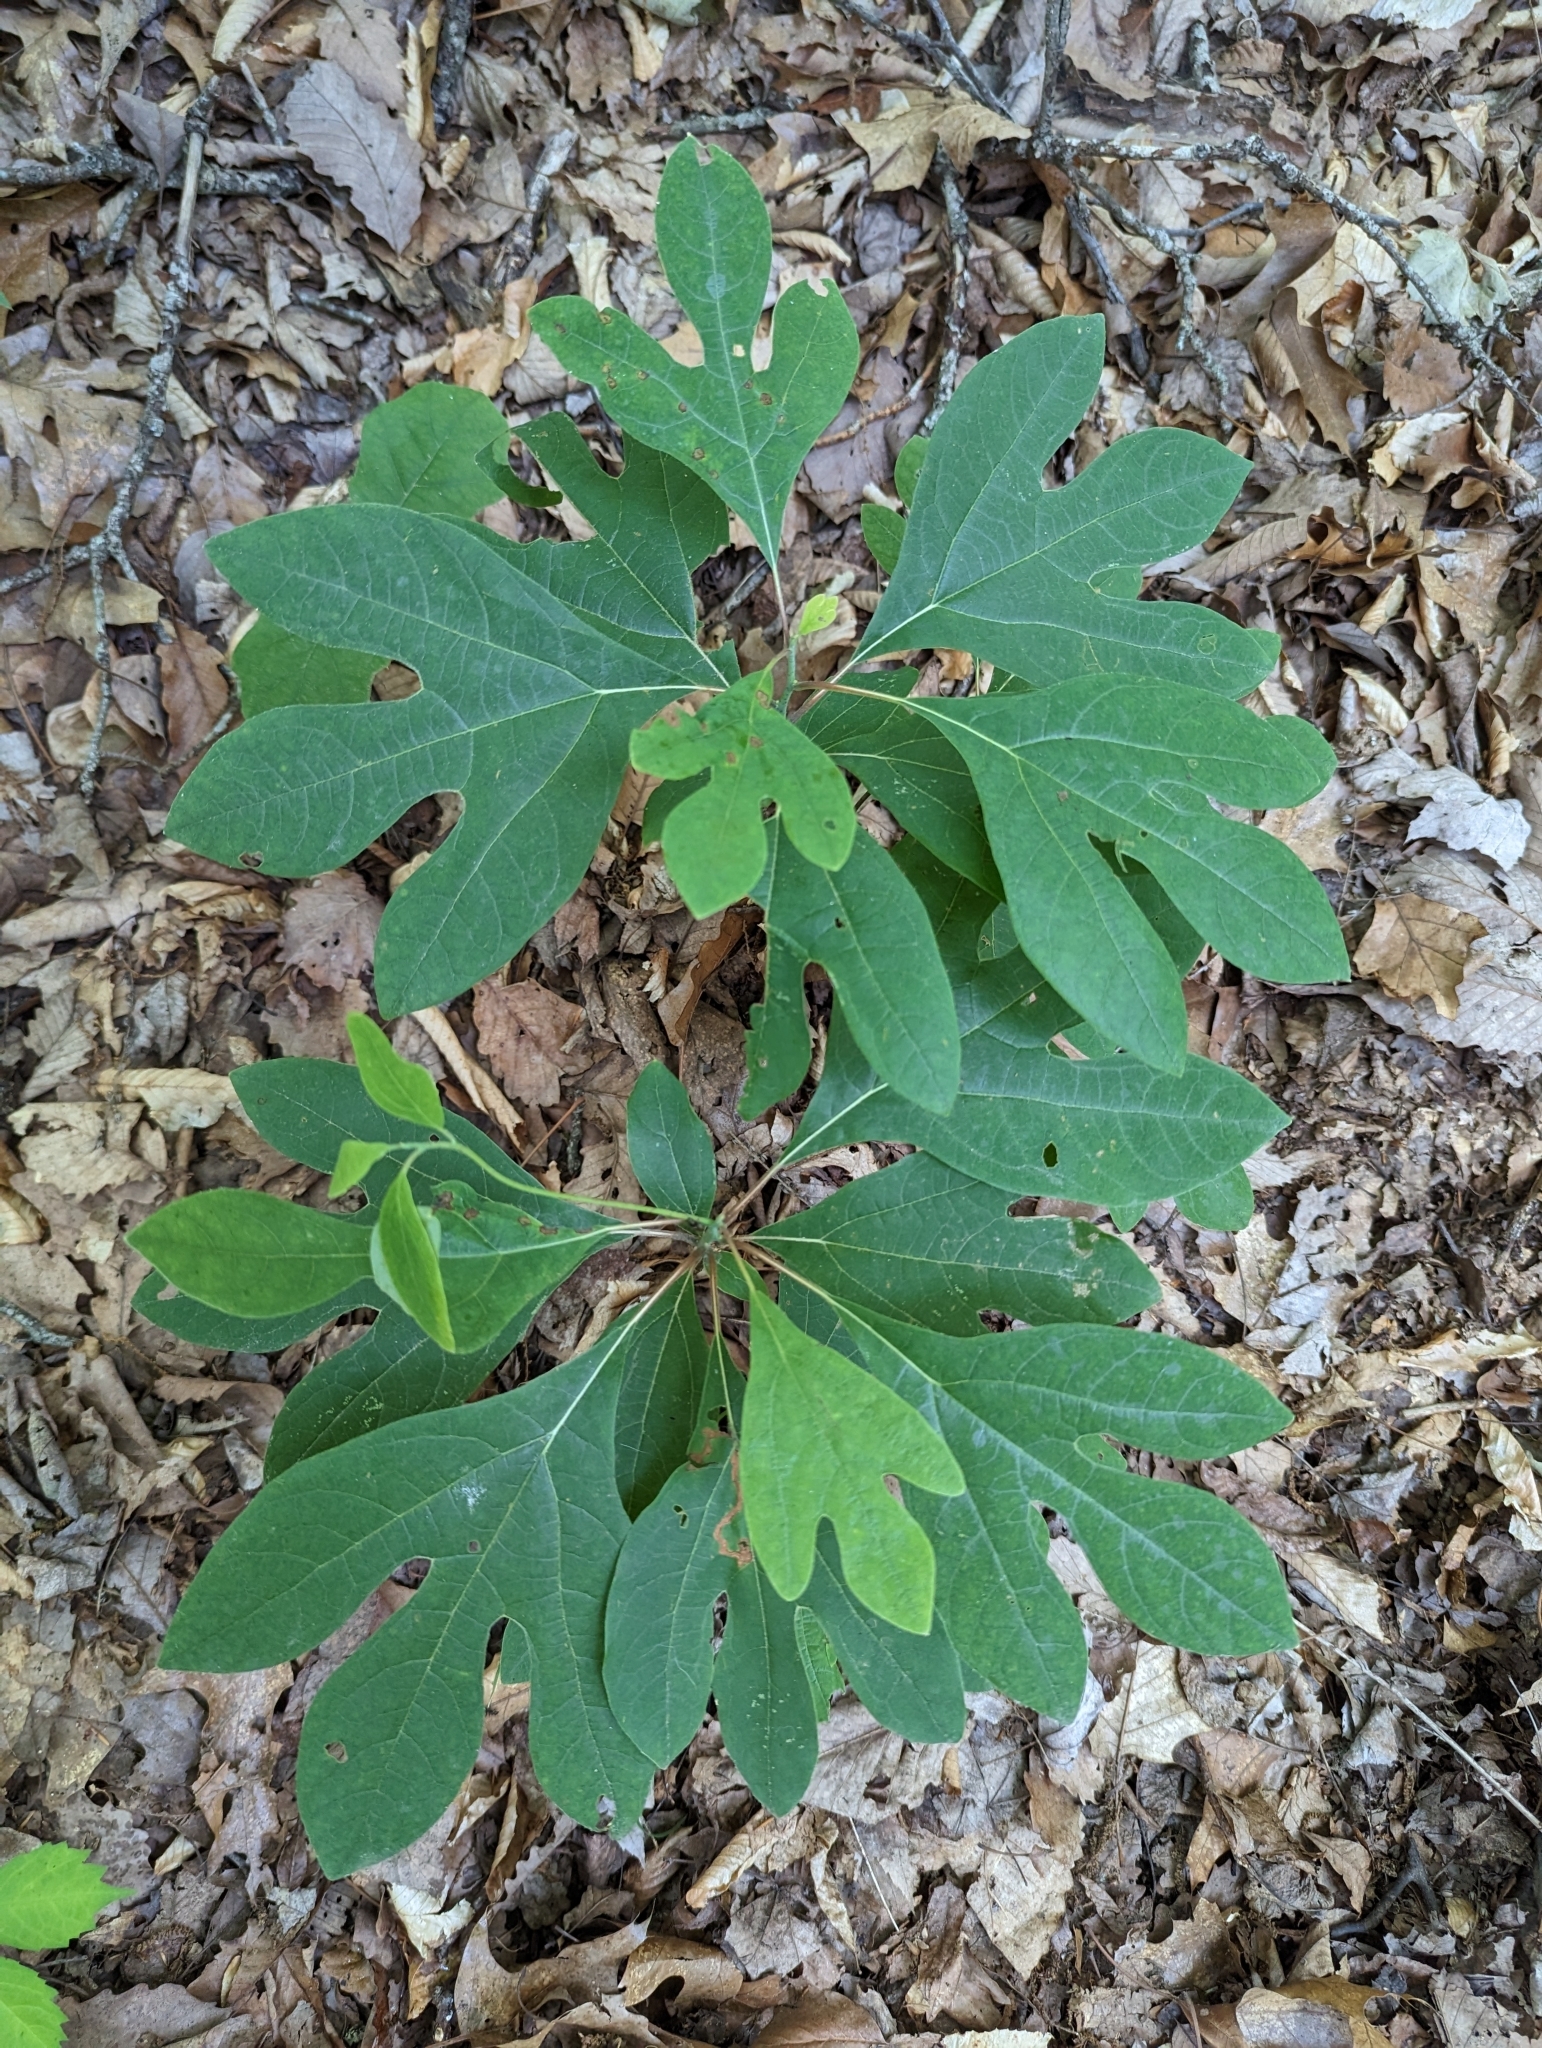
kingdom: Plantae
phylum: Tracheophyta
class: Magnoliopsida
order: Laurales
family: Lauraceae
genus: Sassafras
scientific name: Sassafras albidum
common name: Sassafras
